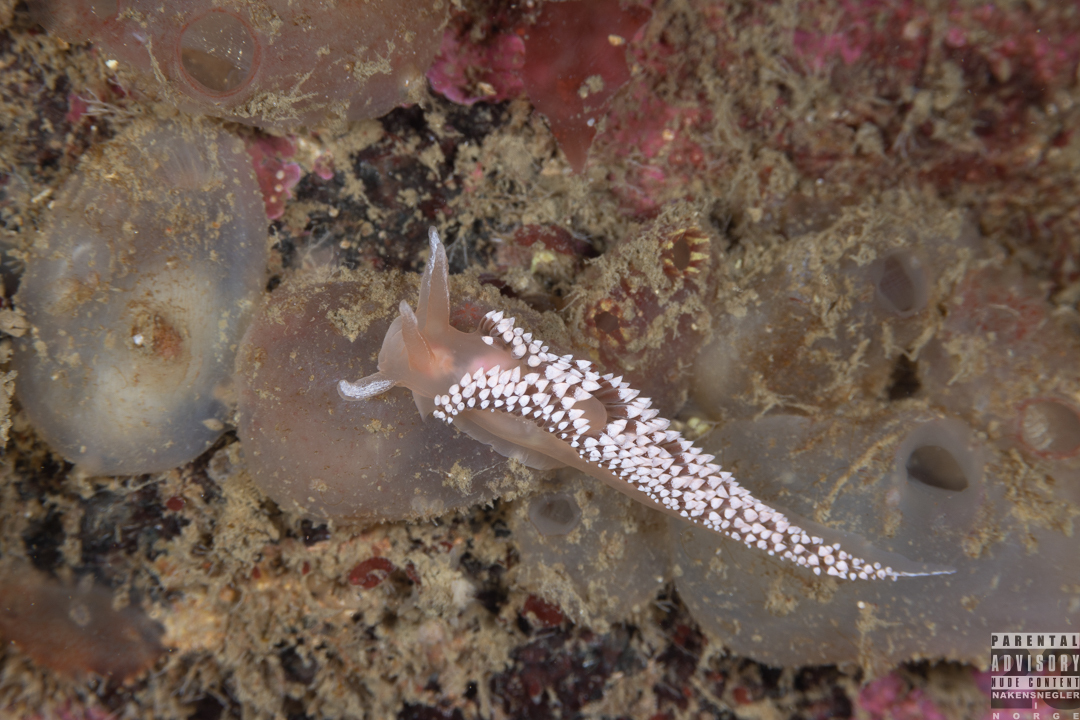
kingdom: Animalia
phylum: Mollusca
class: Gastropoda
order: Nudibranchia
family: Coryphellidae
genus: Coryphella
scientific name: Coryphella verrucosa
